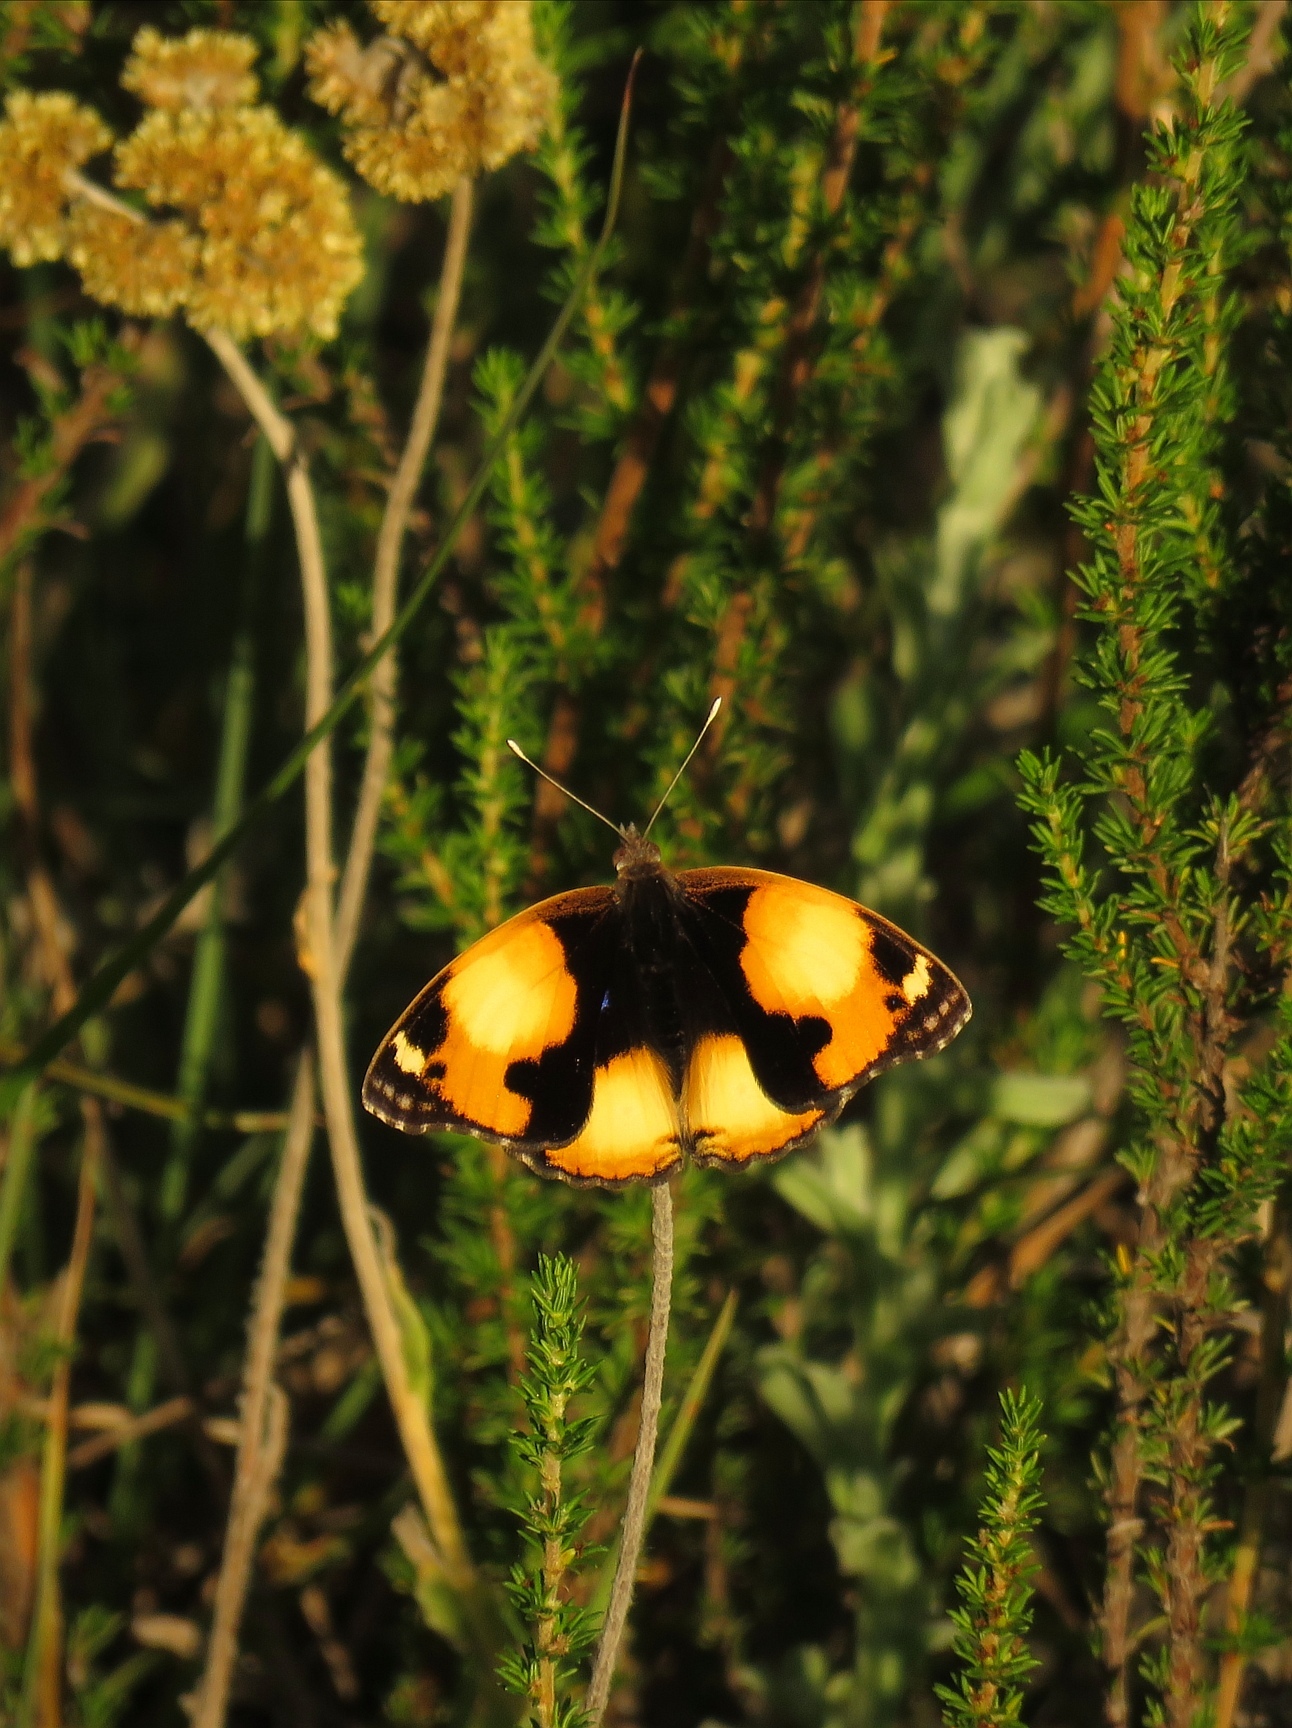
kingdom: Animalia
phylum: Arthropoda
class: Insecta
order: Lepidoptera
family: Nymphalidae
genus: Junonia
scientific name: Junonia hierta
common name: Yellow pansy
